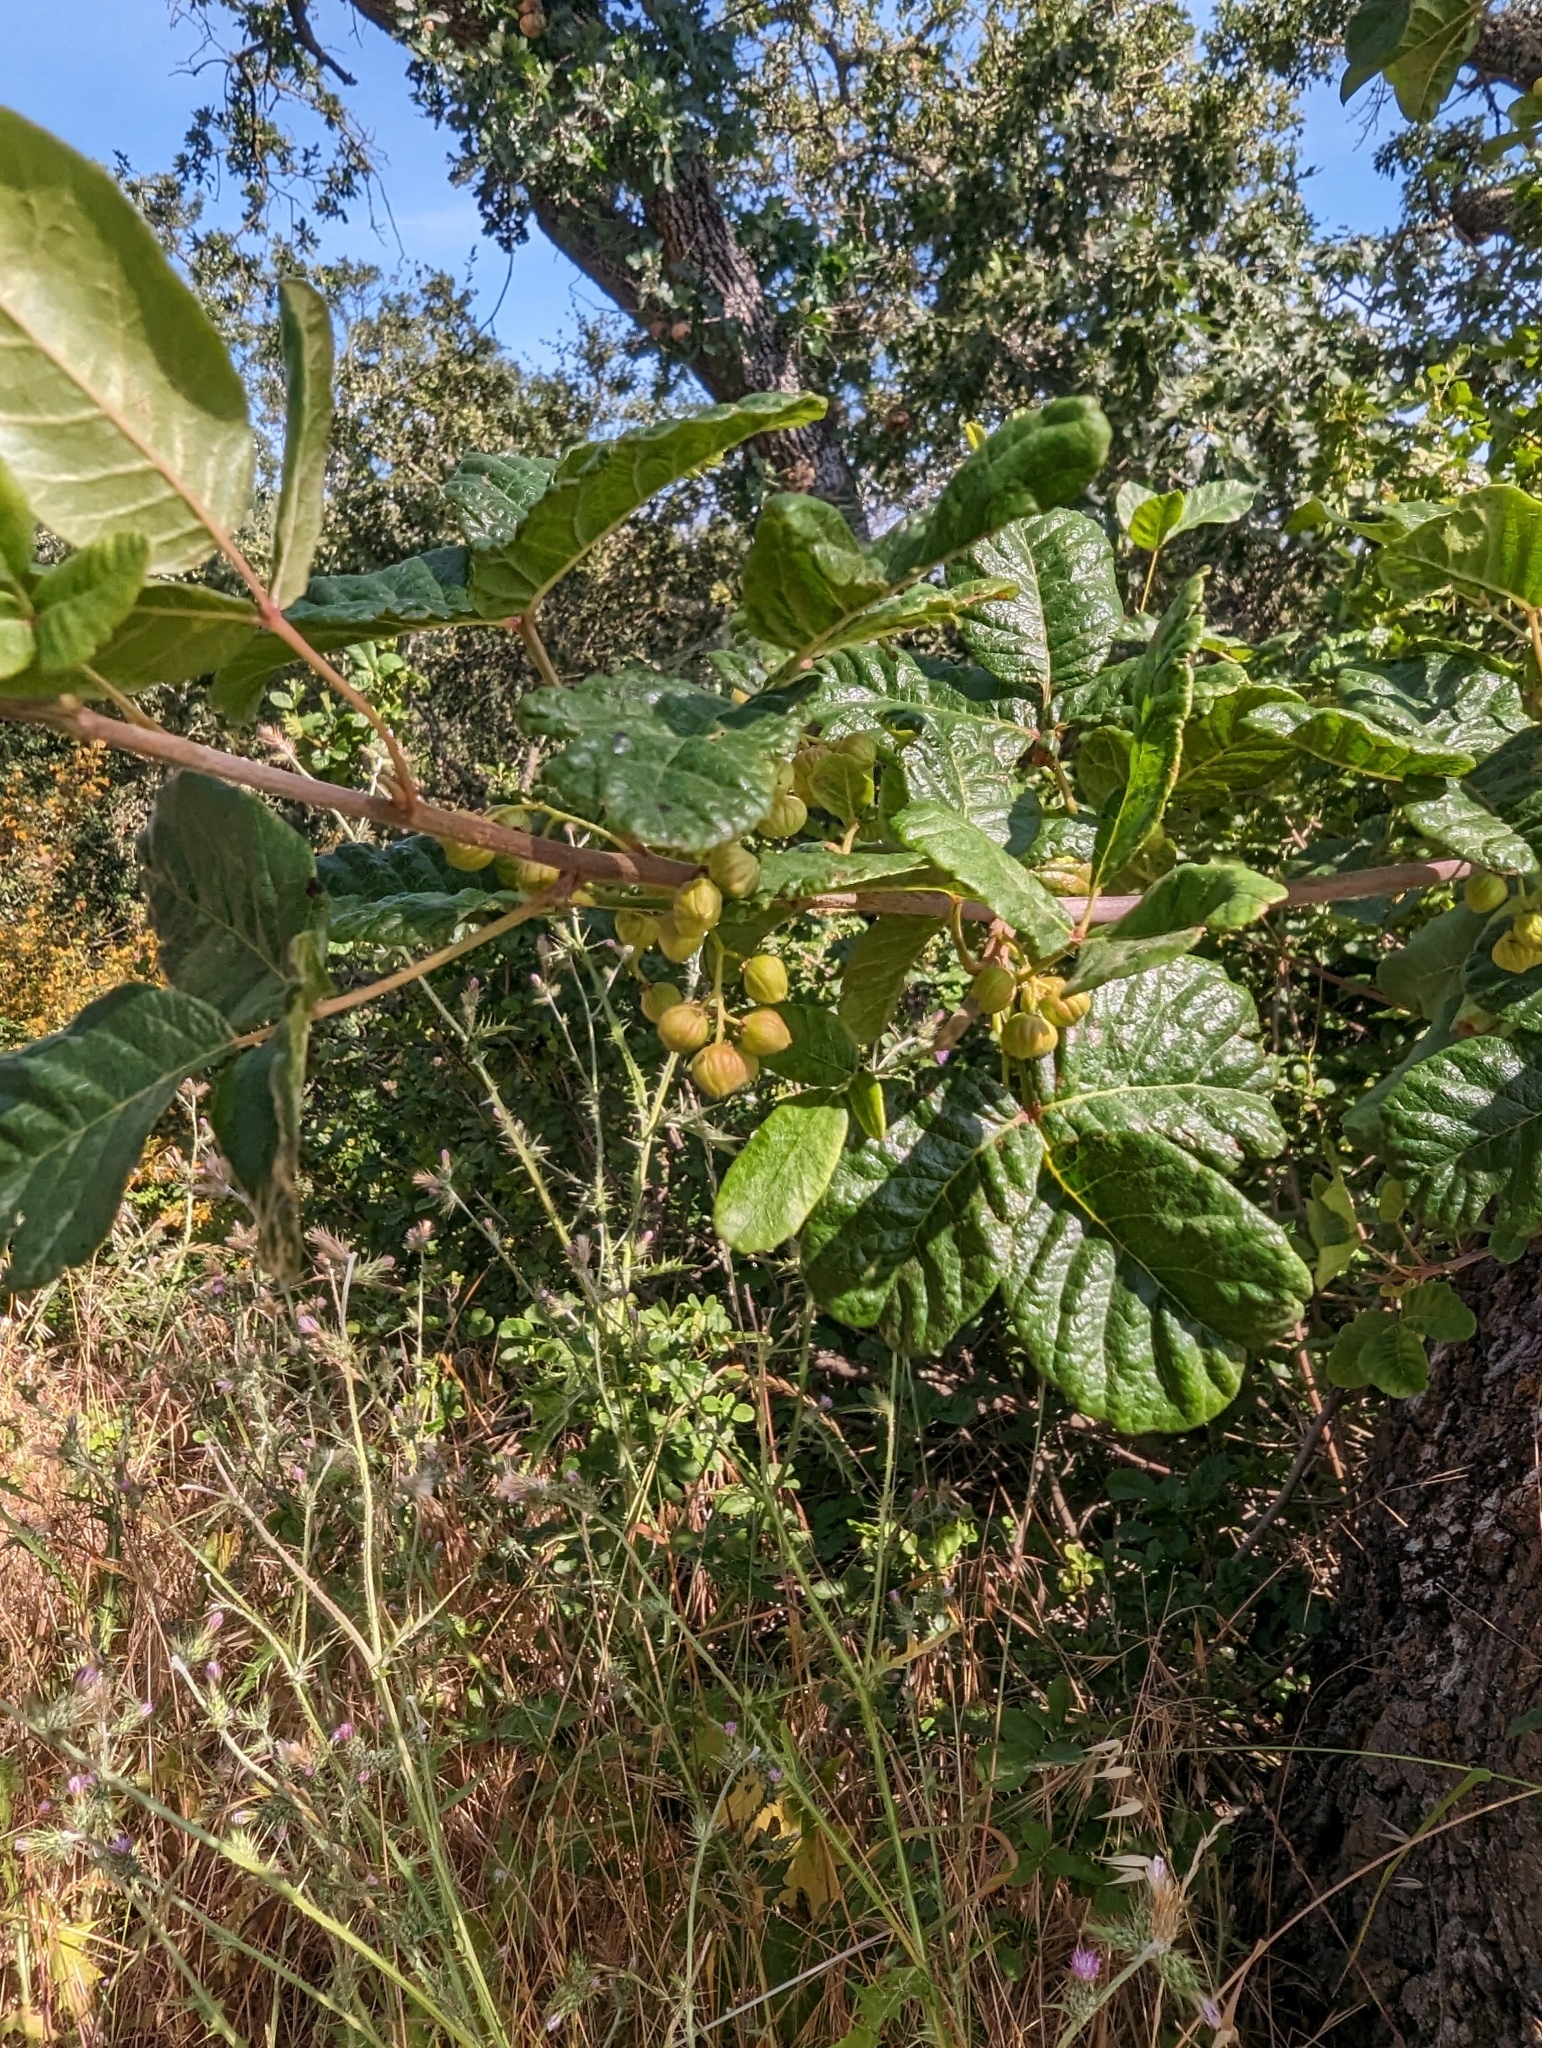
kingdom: Plantae
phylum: Tracheophyta
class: Magnoliopsida
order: Sapindales
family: Anacardiaceae
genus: Toxicodendron
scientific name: Toxicodendron diversilobum
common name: Pacific poison-oak
